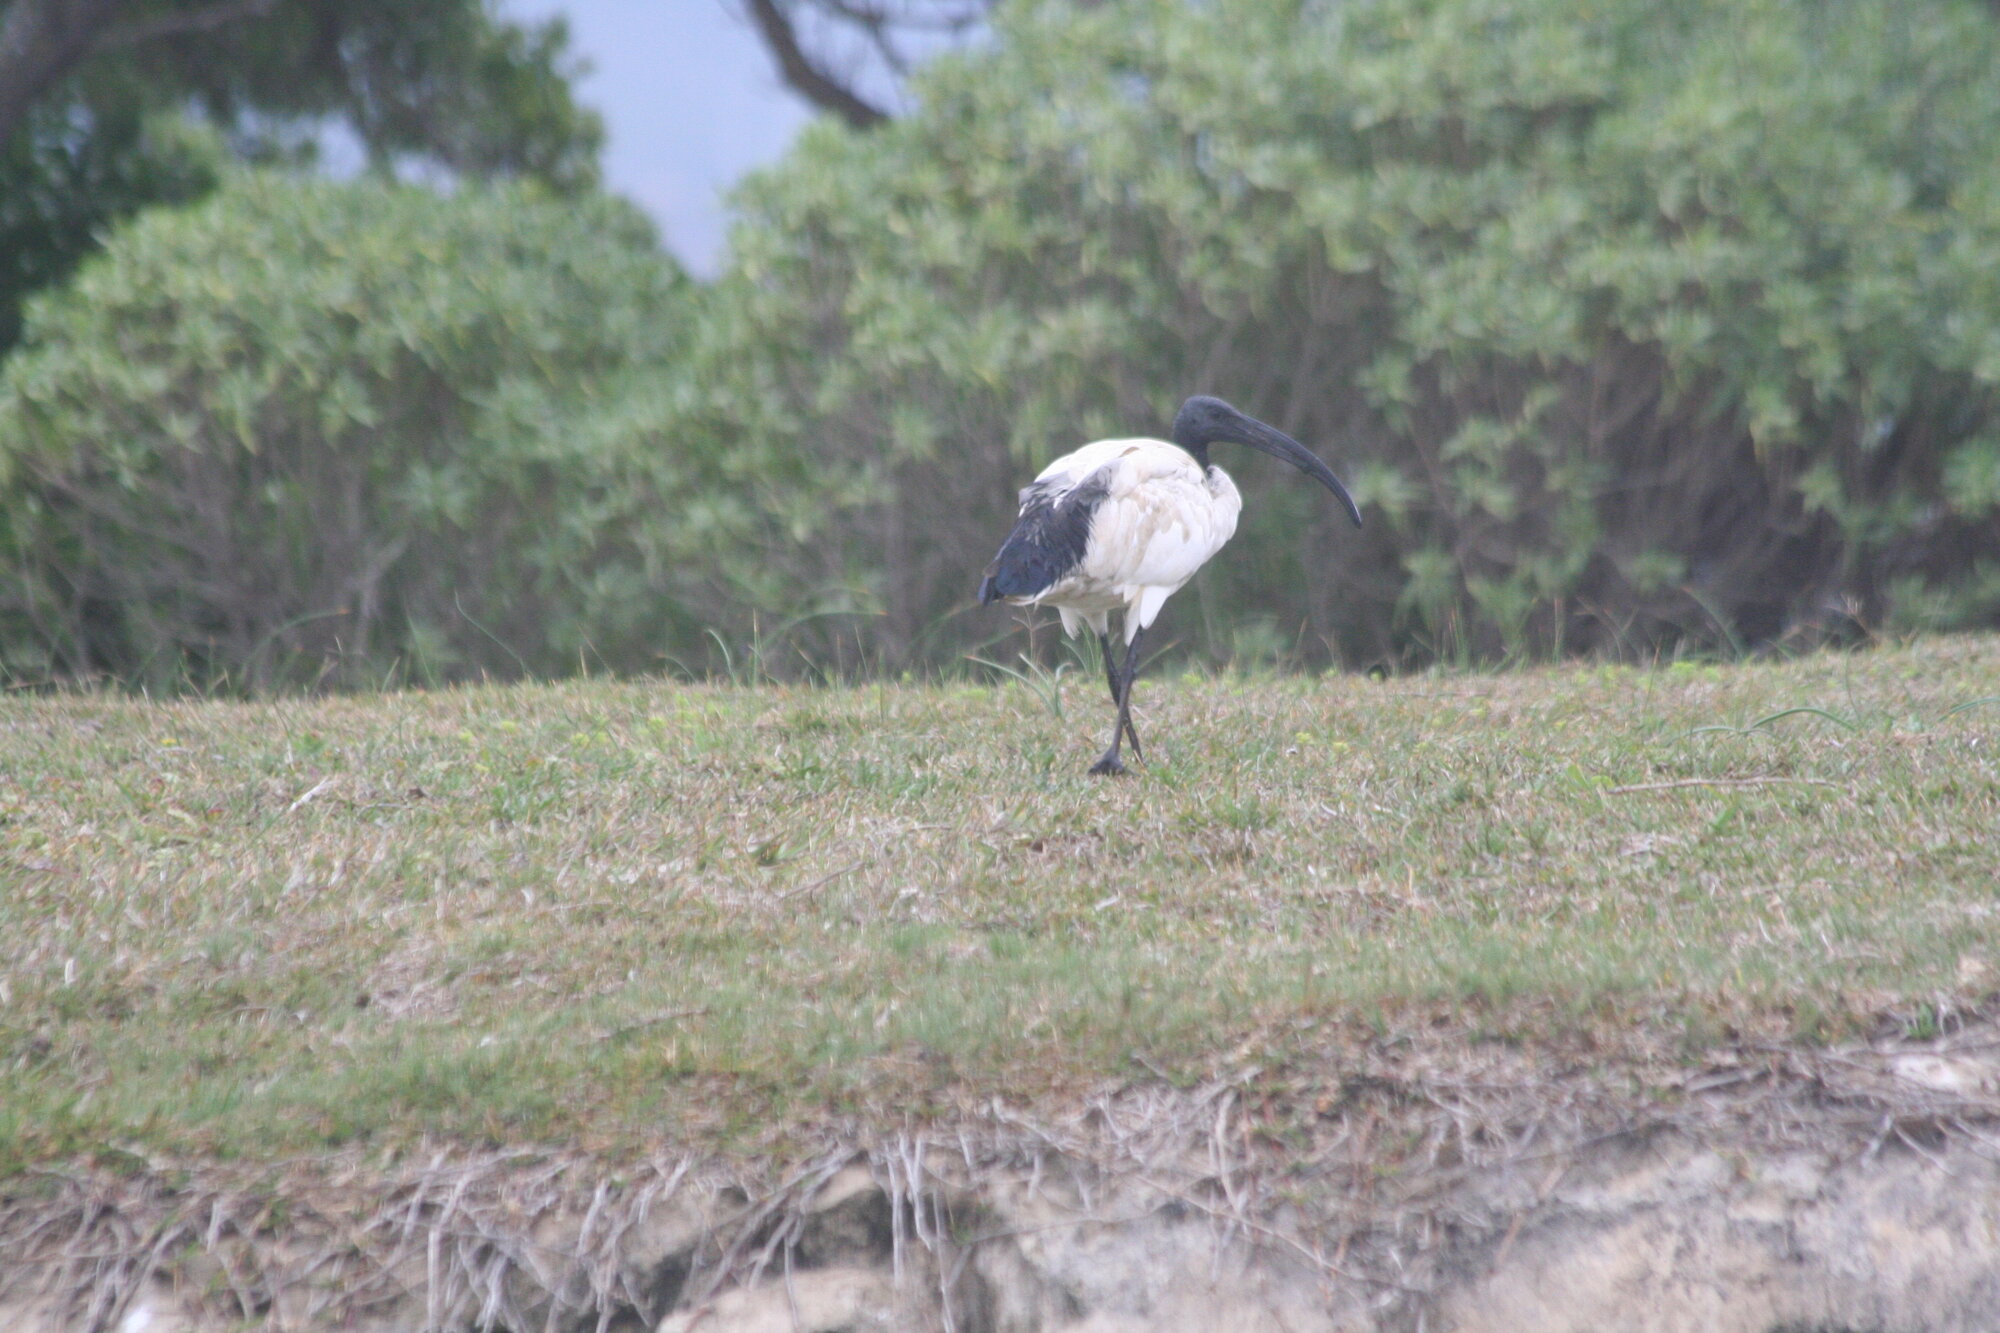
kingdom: Animalia
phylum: Chordata
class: Aves
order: Pelecaniformes
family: Threskiornithidae
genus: Threskiornis
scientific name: Threskiornis aethiopicus
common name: Sacred ibis
